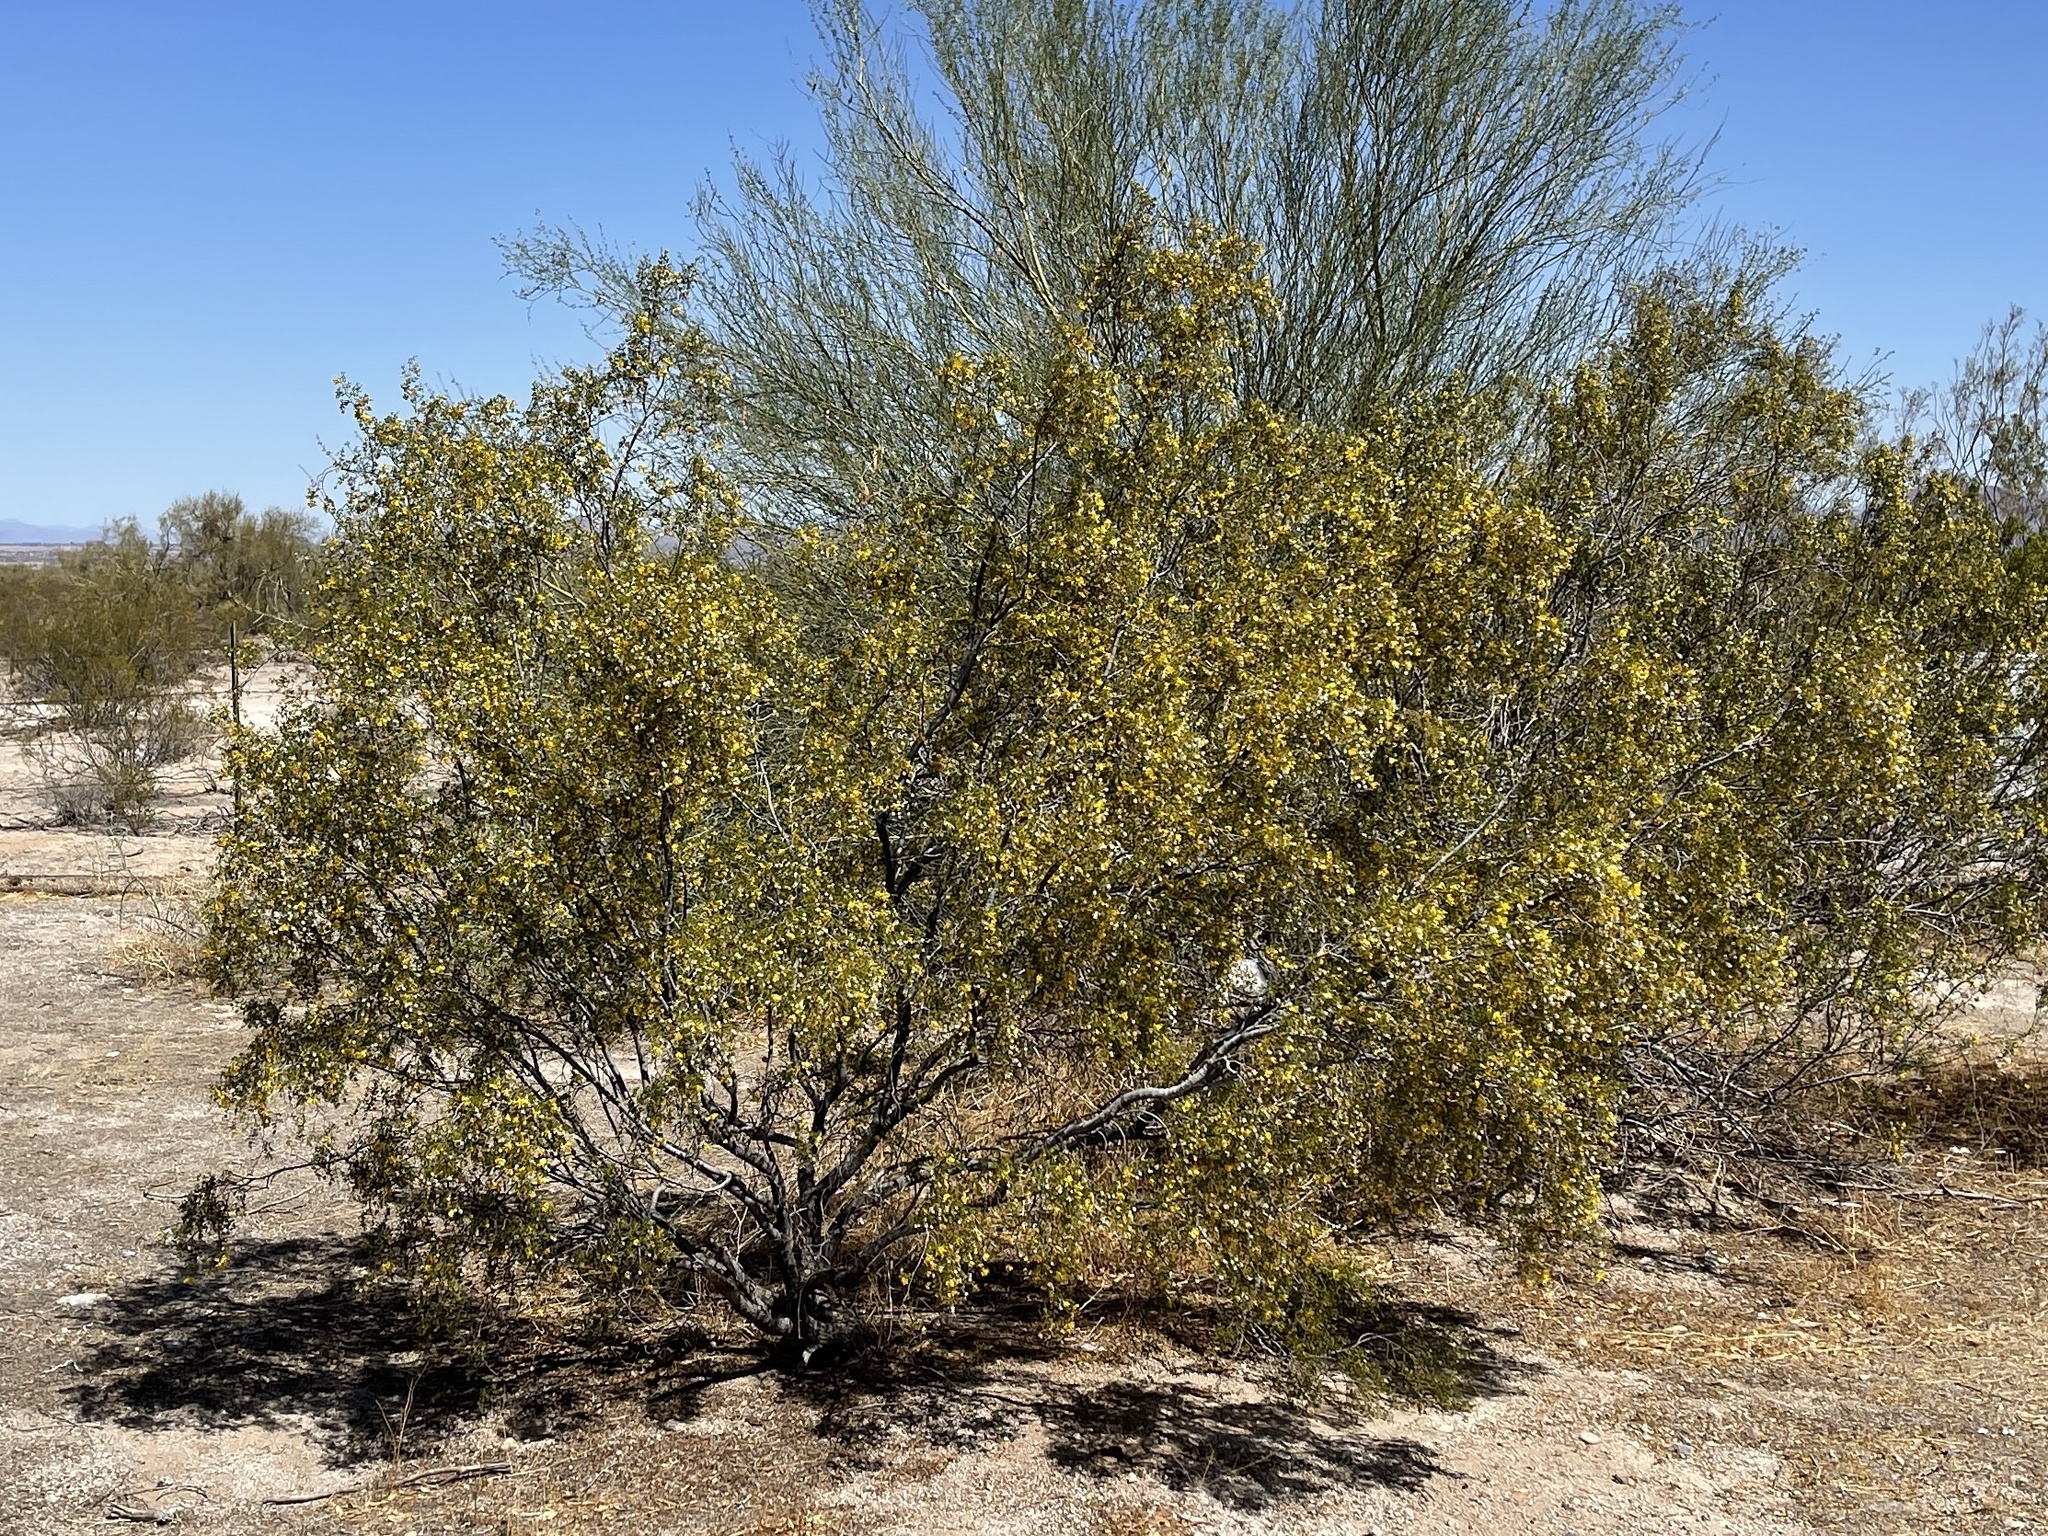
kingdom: Plantae
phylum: Tracheophyta
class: Magnoliopsida
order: Zygophyllales
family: Zygophyllaceae
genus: Larrea
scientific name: Larrea tridentata
